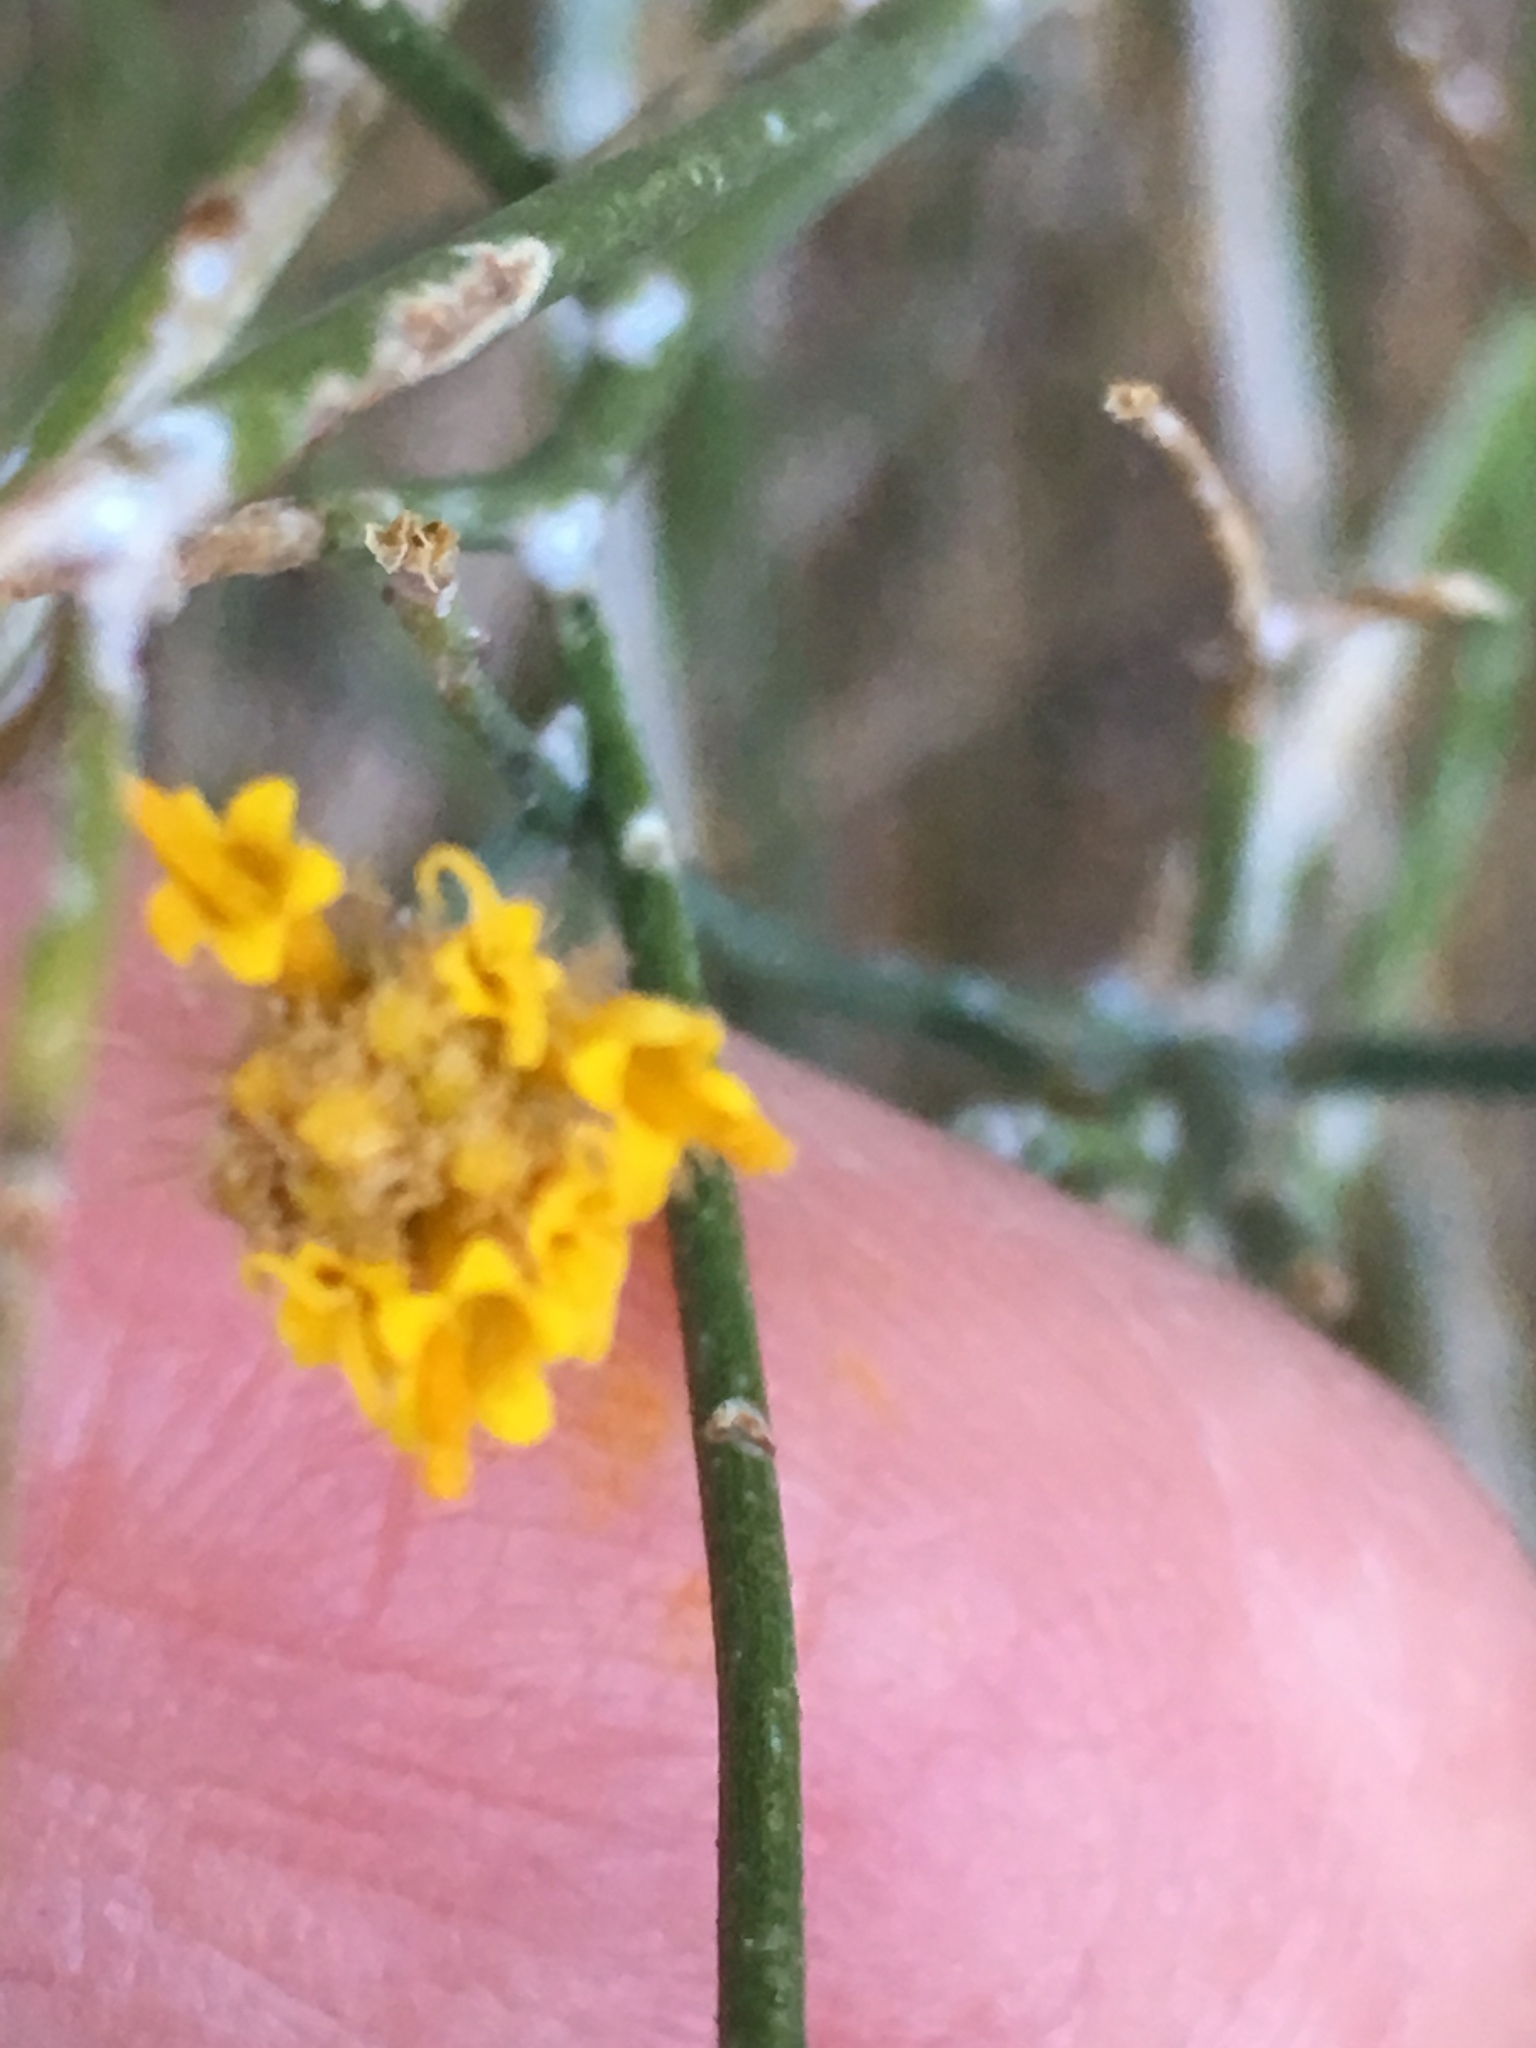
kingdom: Plantae
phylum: Tracheophyta
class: Magnoliopsida
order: Asterales
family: Asteraceae
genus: Bebbia
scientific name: Bebbia juncea
